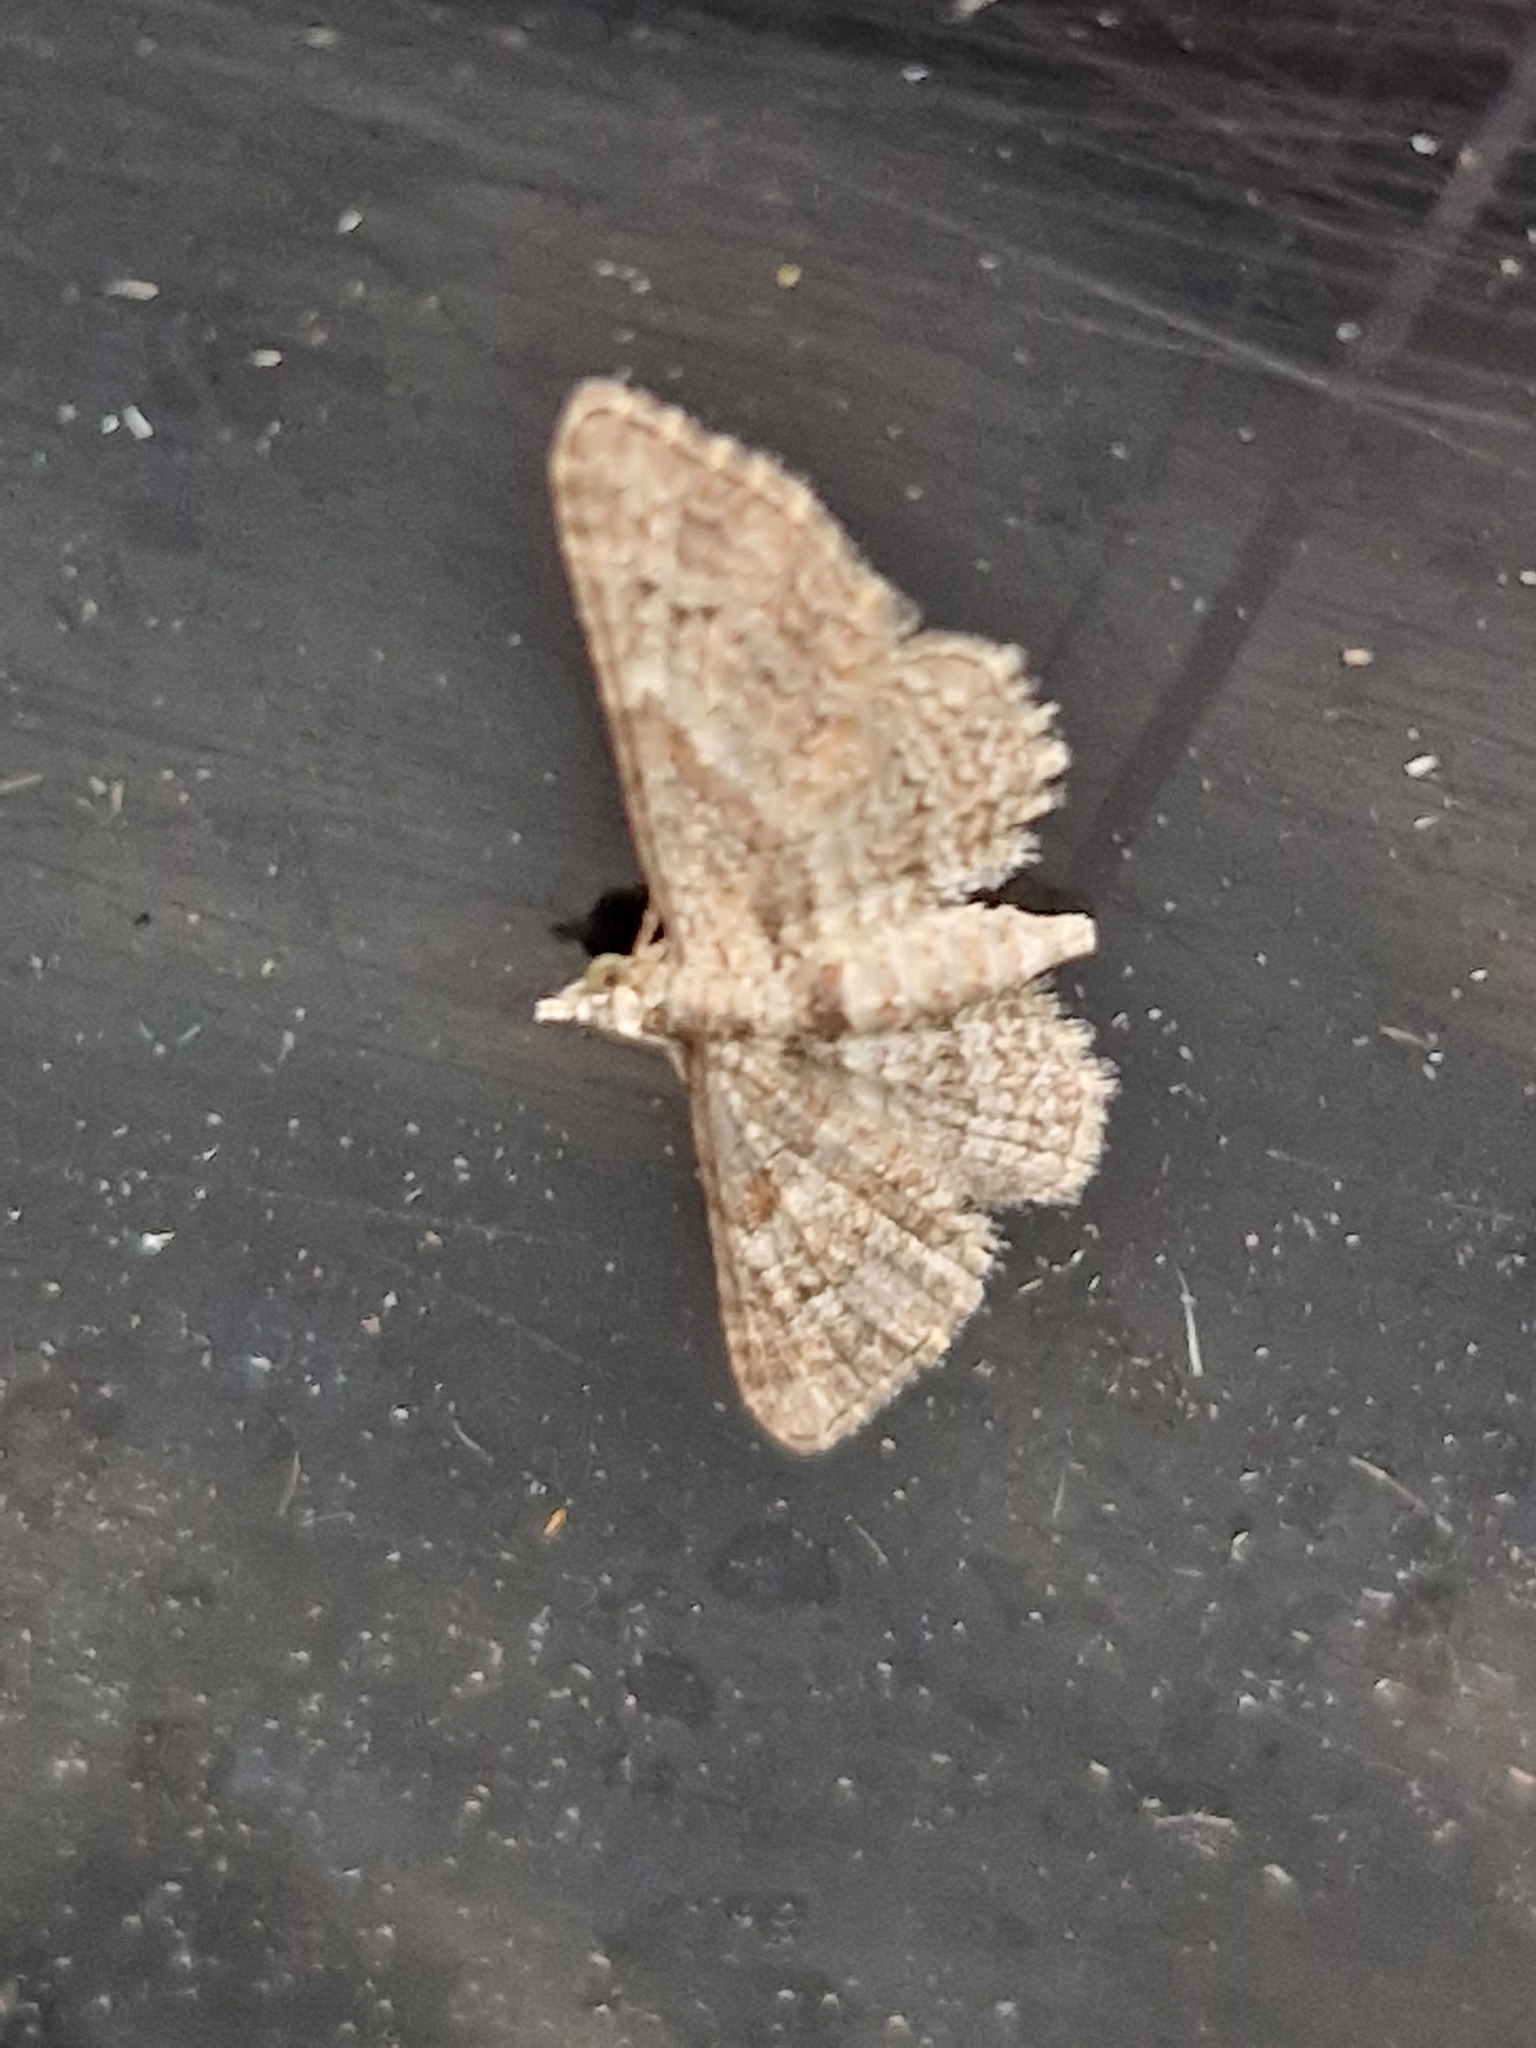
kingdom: Animalia
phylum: Arthropoda
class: Insecta
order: Lepidoptera
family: Geometridae
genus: Gymnoscelis
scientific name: Gymnoscelis rufifasciata
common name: Double-striped pug
